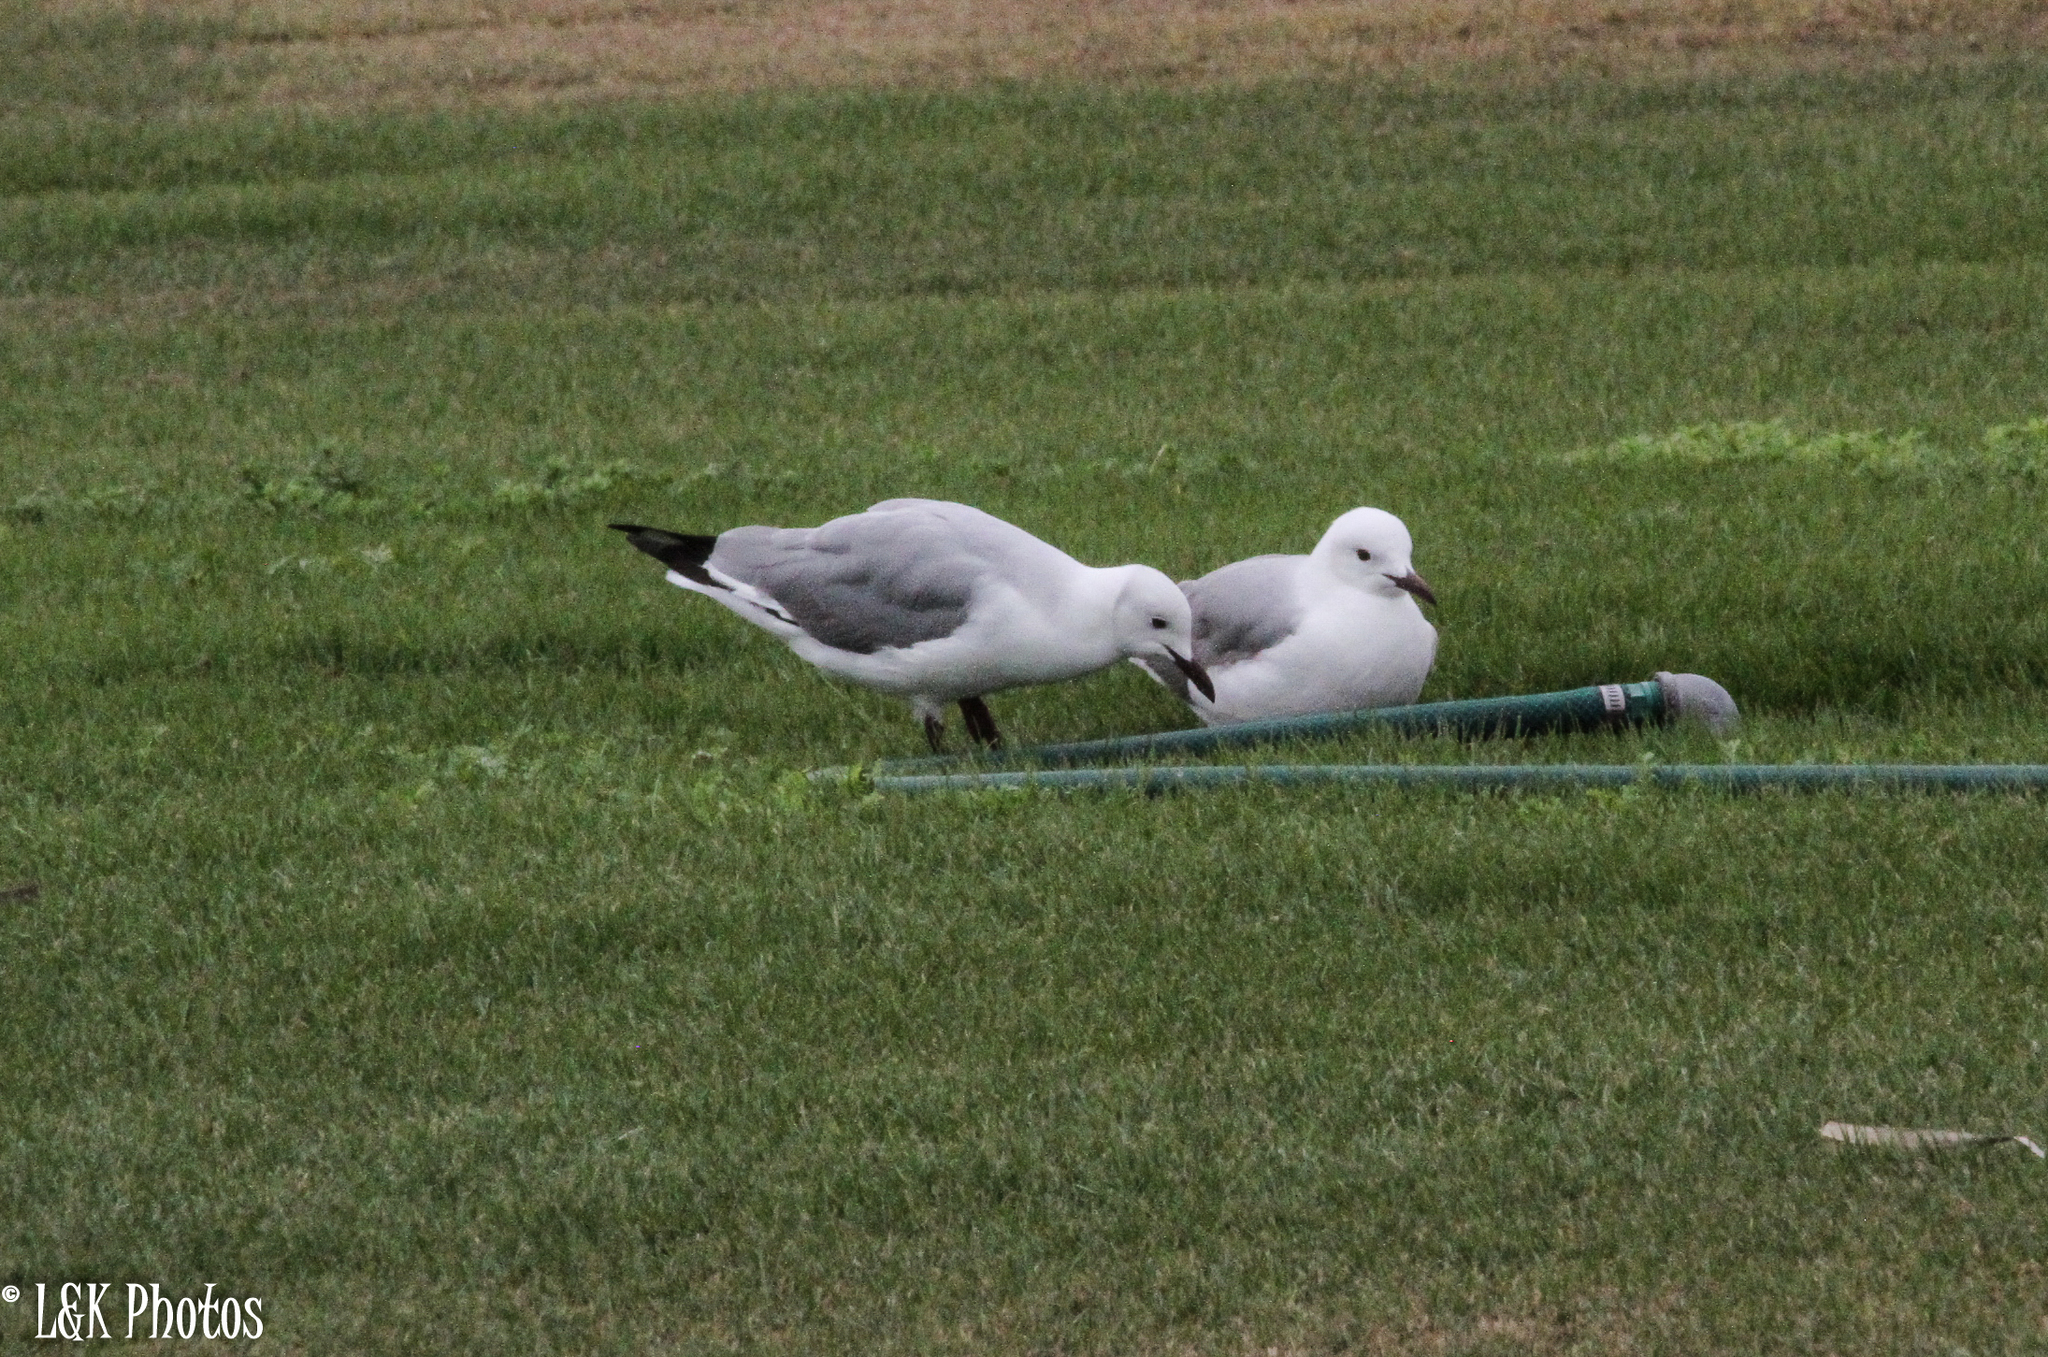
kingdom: Animalia
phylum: Chordata
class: Aves
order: Charadriiformes
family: Laridae
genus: Chroicocephalus
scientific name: Chroicocephalus hartlaubii
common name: Hartlaub's gull
